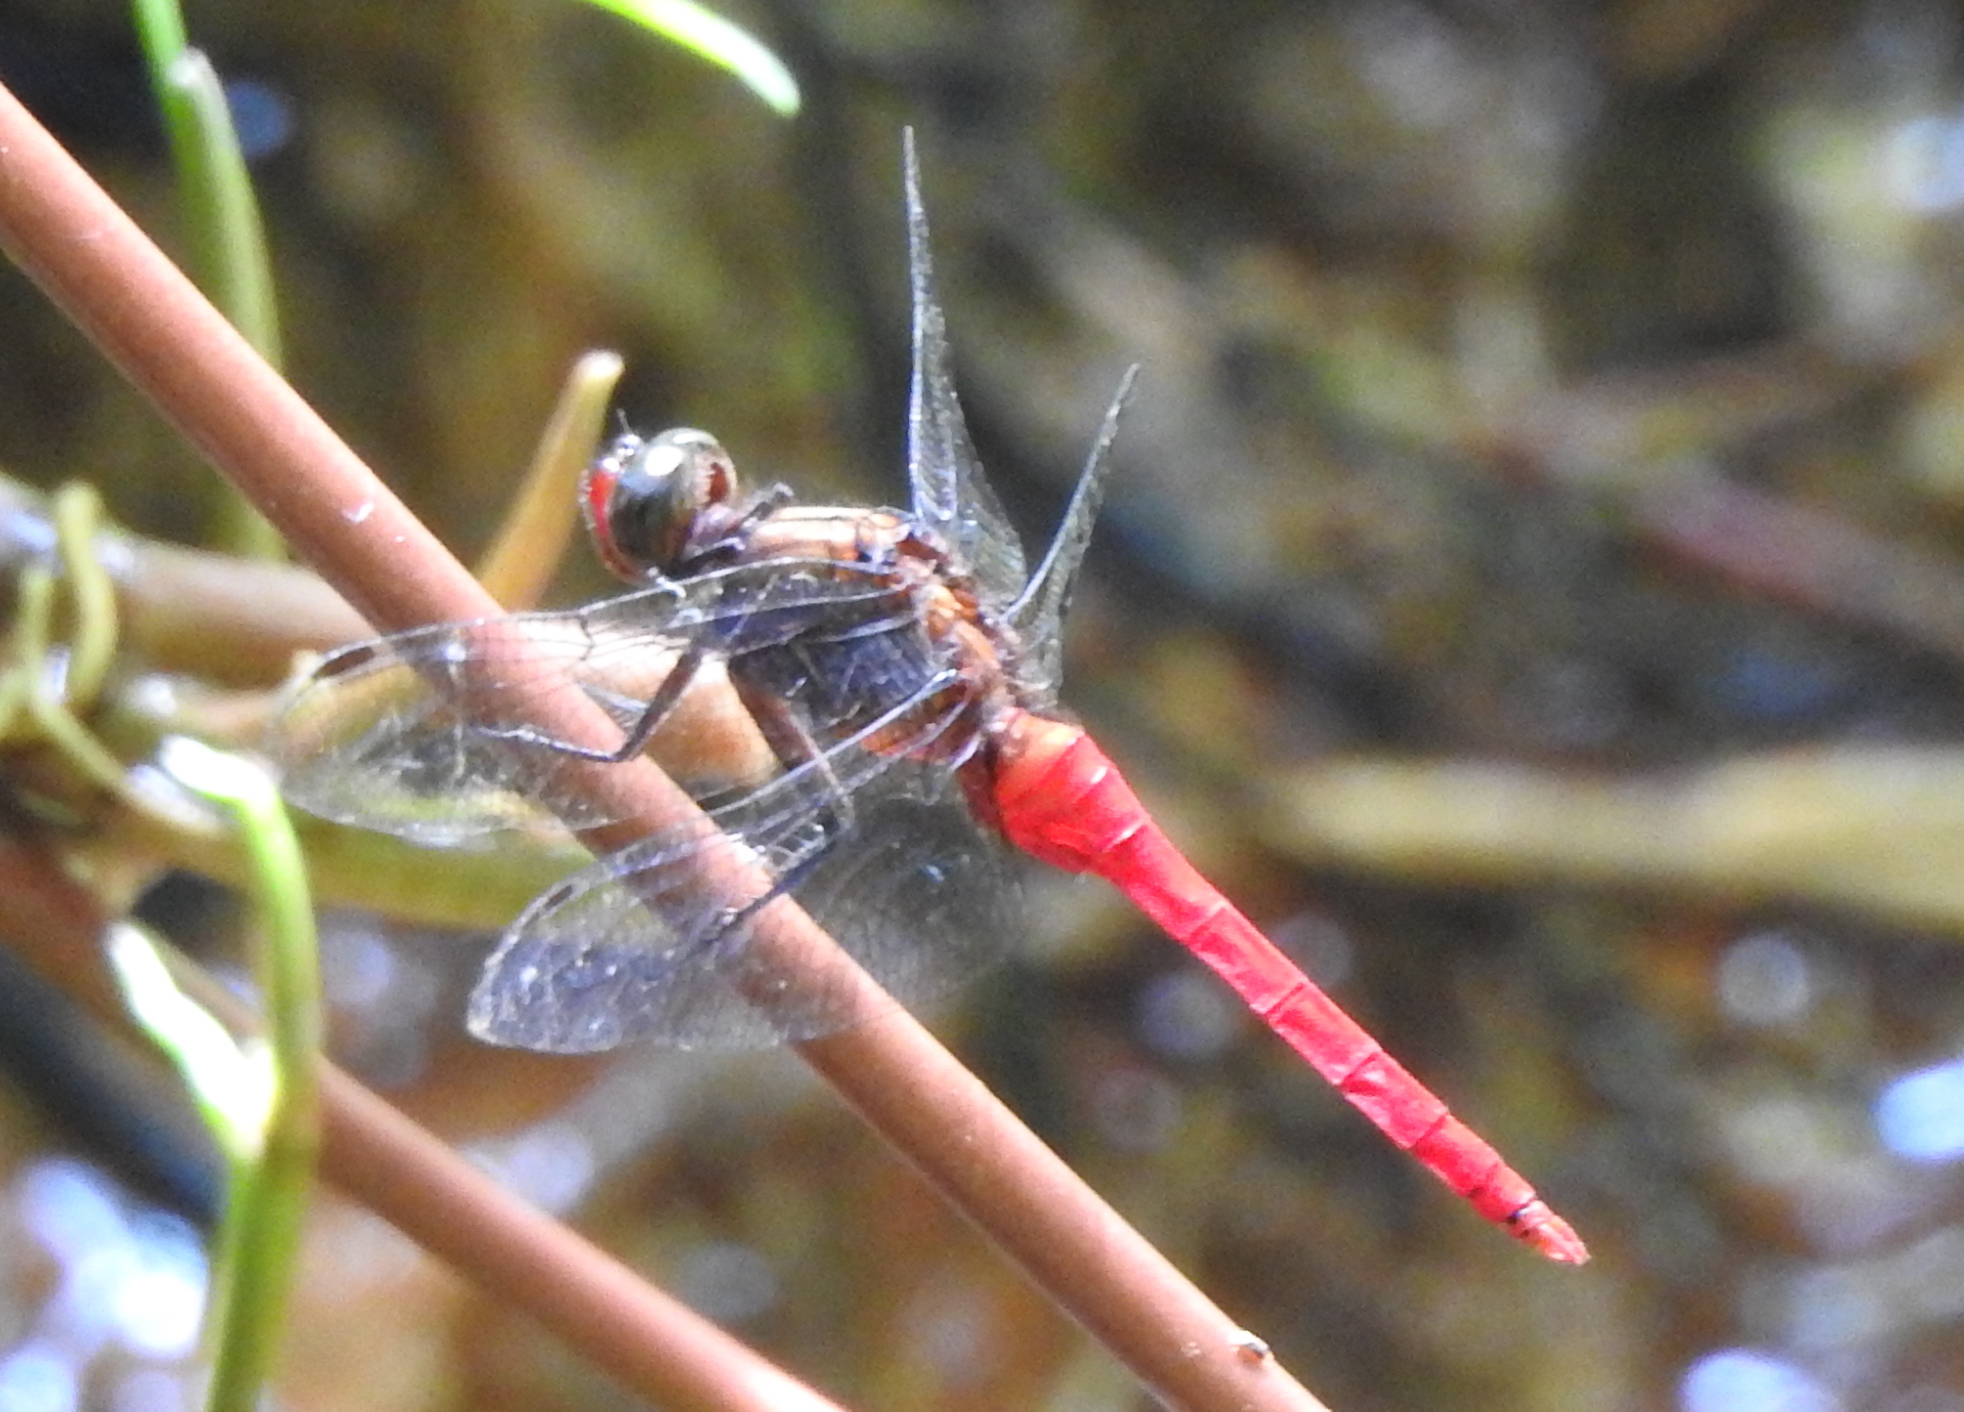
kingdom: Animalia
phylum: Arthropoda
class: Insecta
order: Odonata
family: Libellulidae
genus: Orthetrum
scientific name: Orthetrum chrysis
